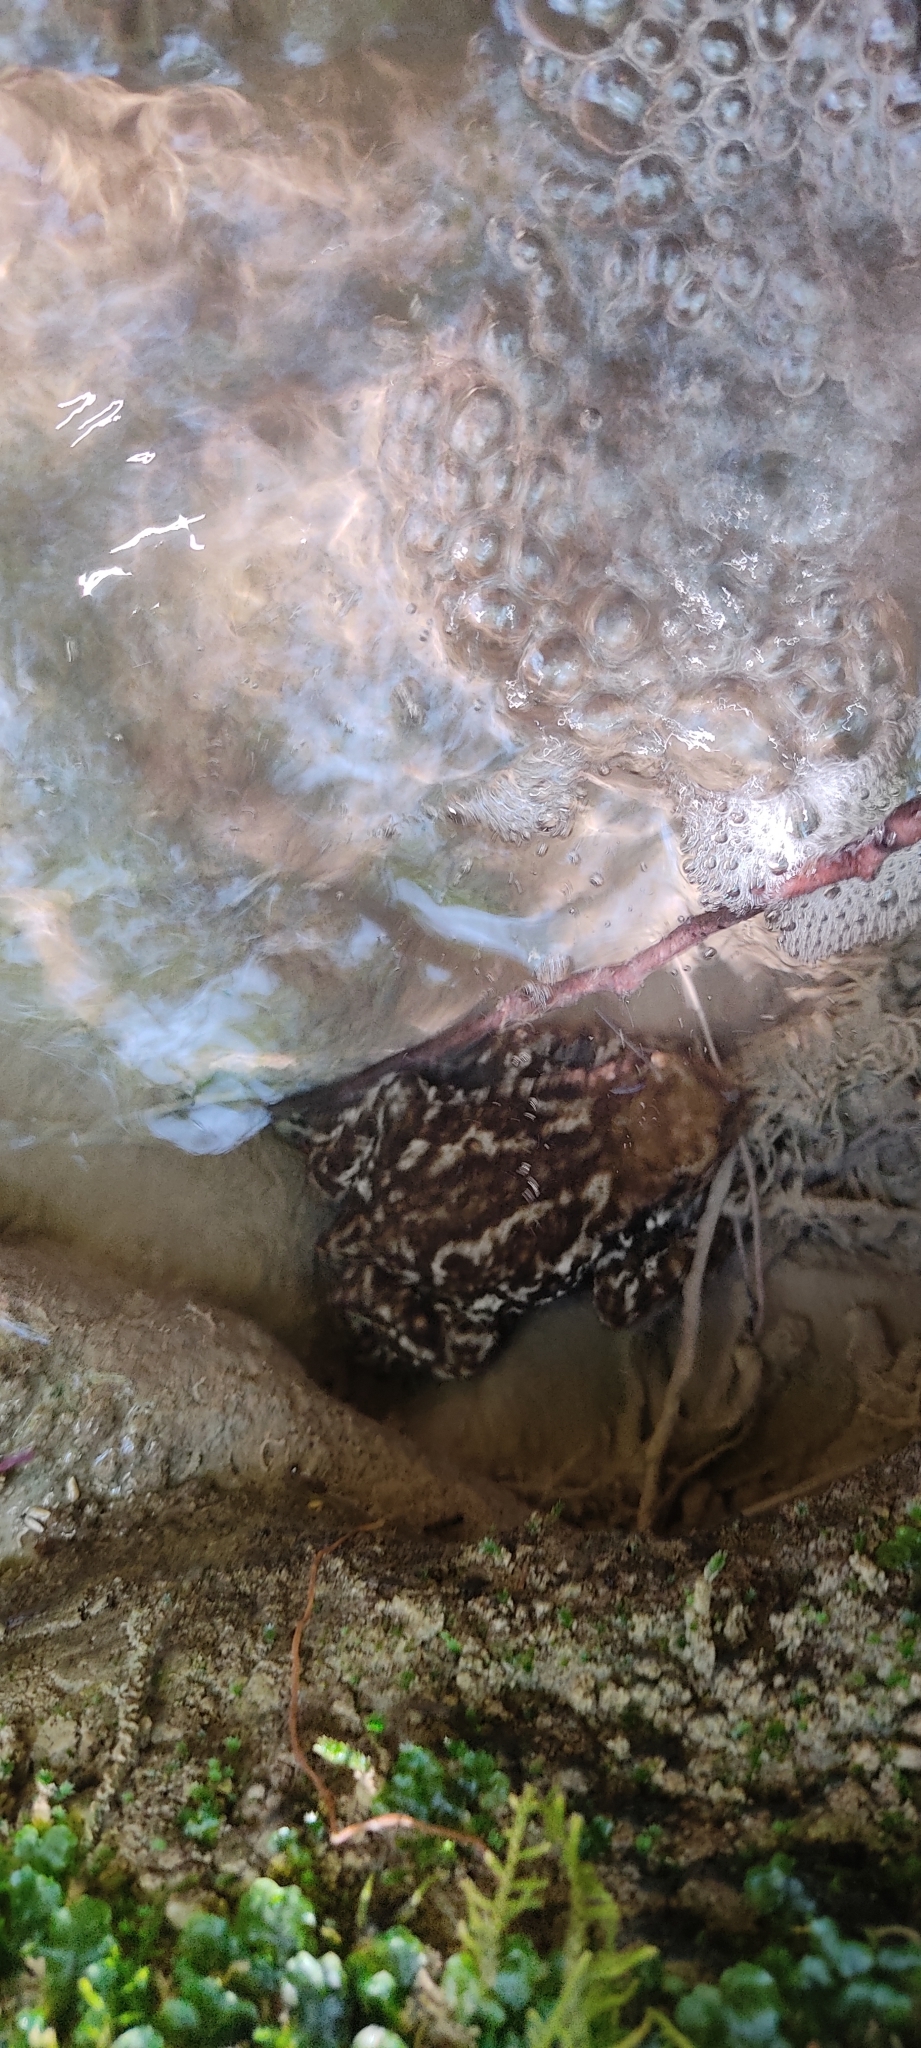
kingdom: Animalia
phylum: Chordata
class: Amphibia
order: Anura
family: Bufonidae
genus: Bufo
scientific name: Bufo spinosus
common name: Western common toad
